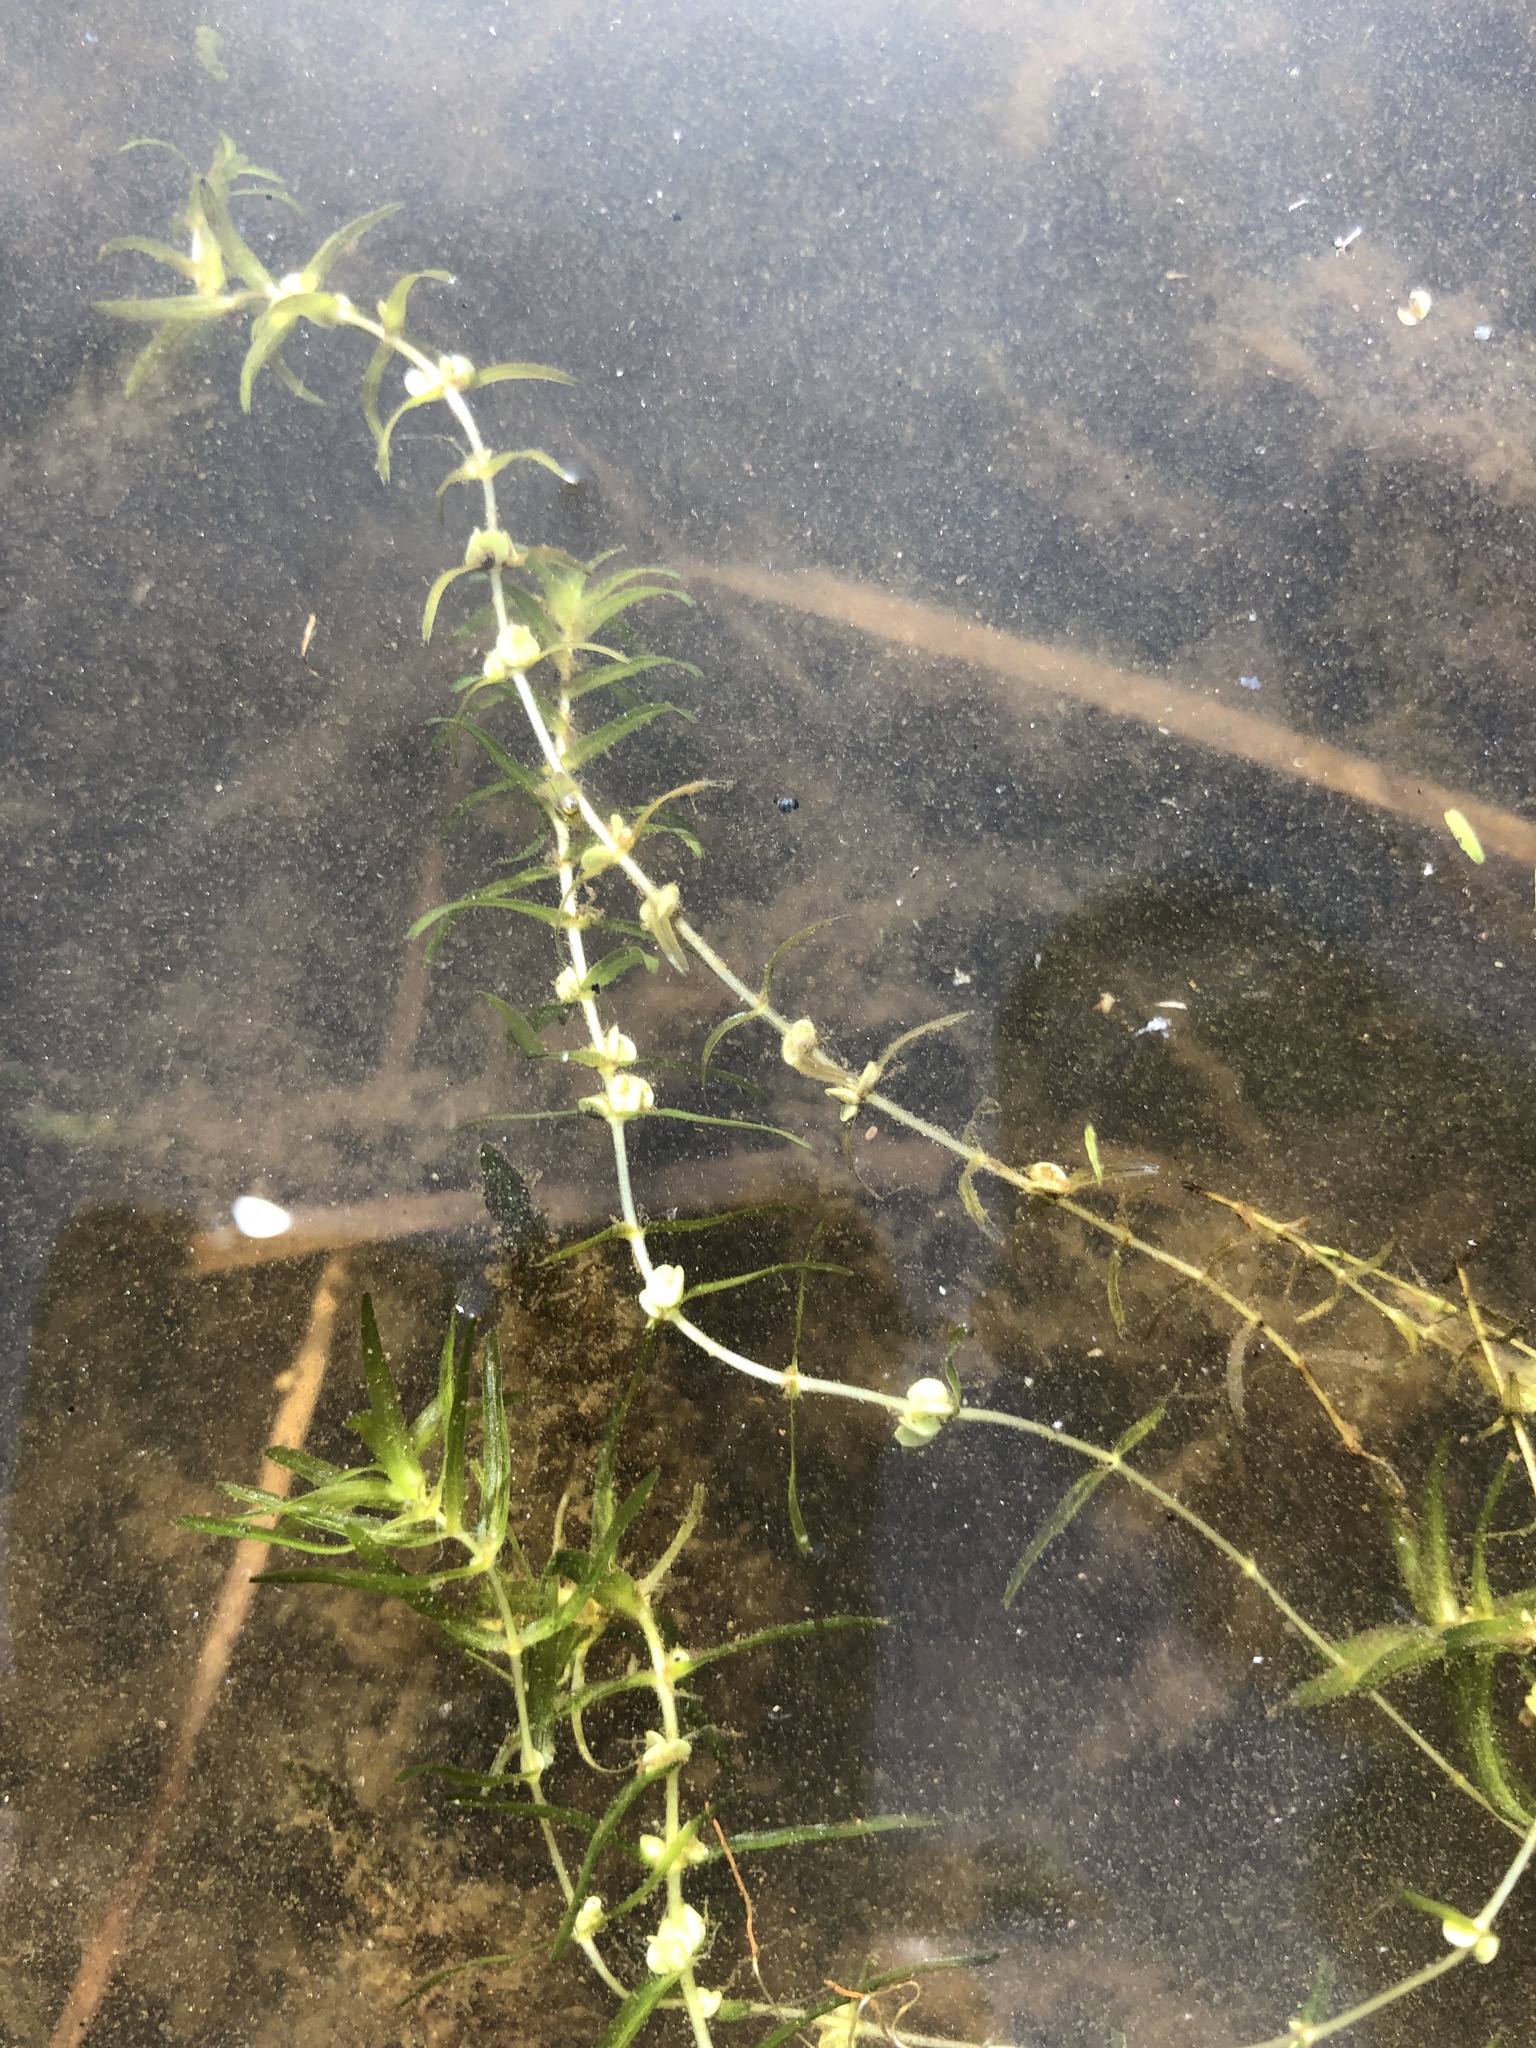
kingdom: Plantae
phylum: Tracheophyta
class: Magnoliopsida
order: Lamiales
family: Plantaginaceae
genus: Callitriche
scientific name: Callitriche hermaphroditica
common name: Autumnal water-starwort
